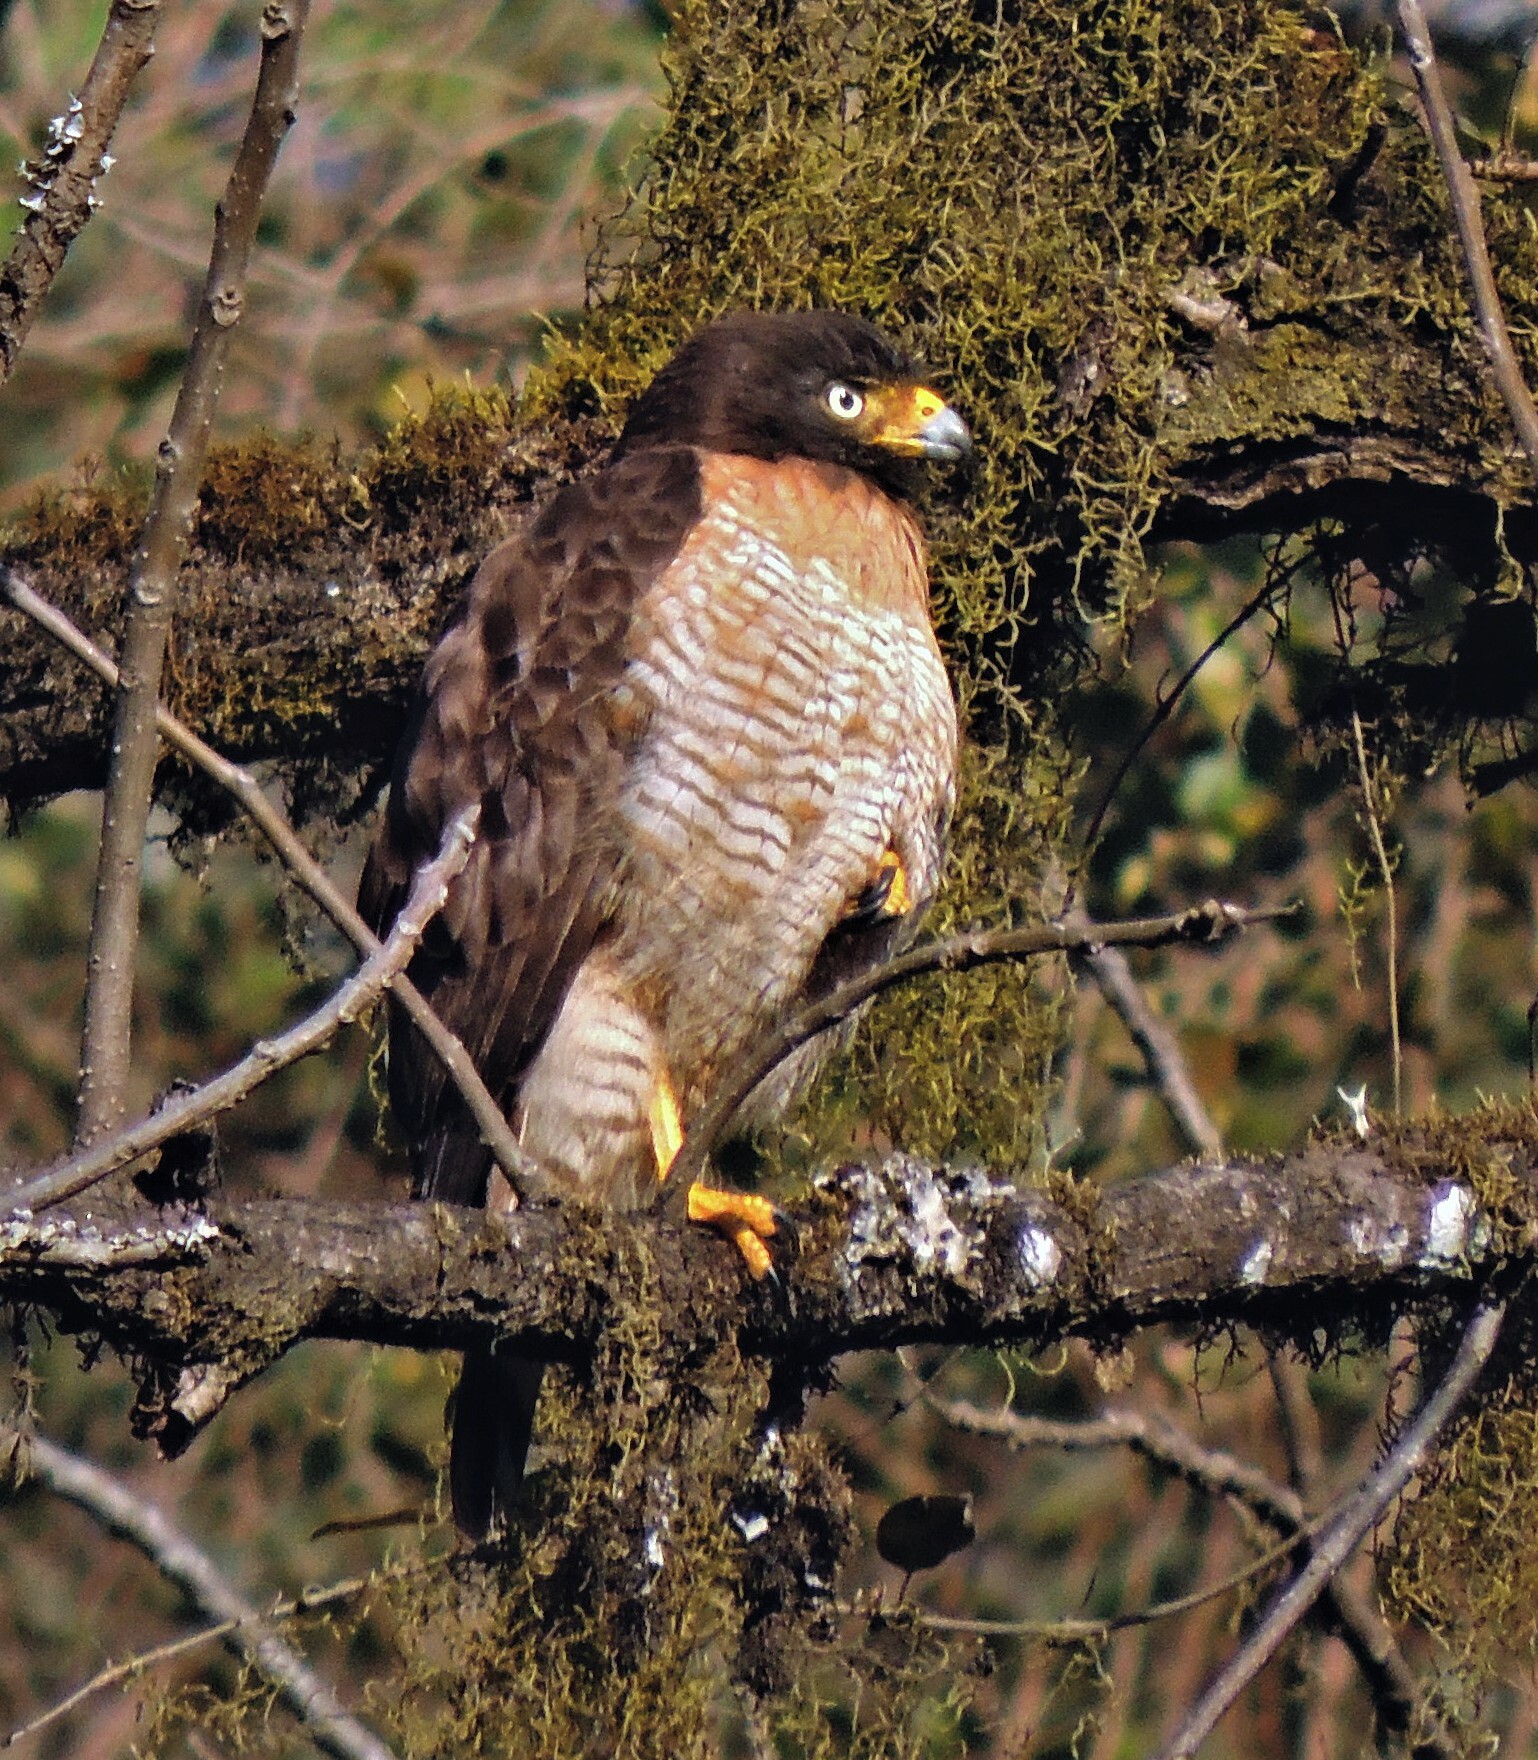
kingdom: Animalia
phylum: Chordata
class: Aves
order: Accipitriformes
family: Accipitridae
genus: Rupornis
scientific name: Rupornis magnirostris
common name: Roadside hawk
